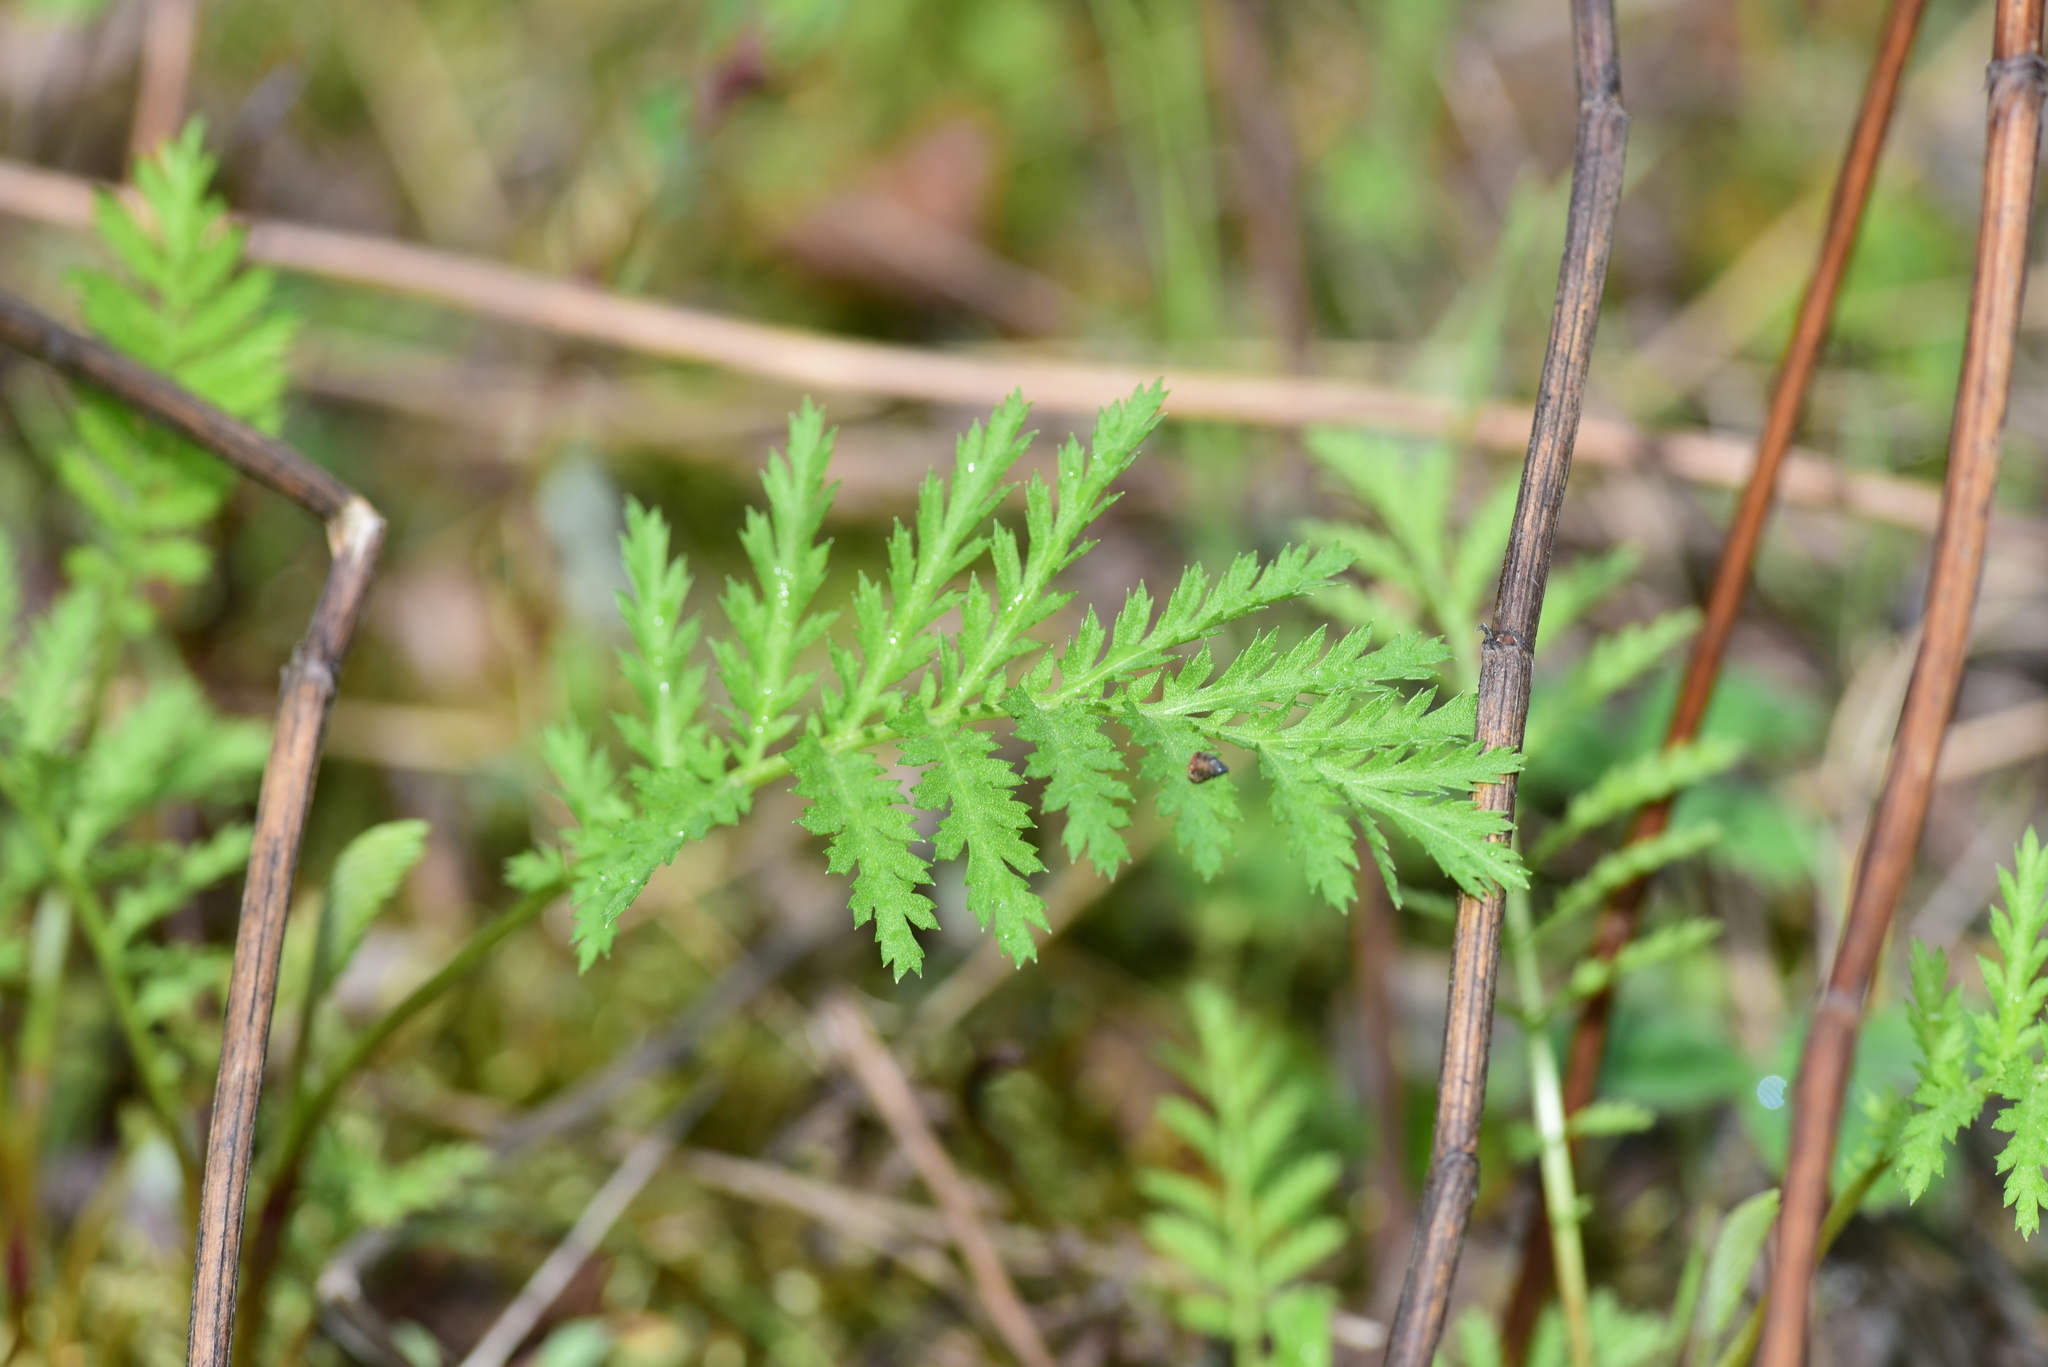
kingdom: Plantae
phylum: Tracheophyta
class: Magnoliopsida
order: Asterales
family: Asteraceae
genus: Tanacetum
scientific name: Tanacetum vulgare
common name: Common tansy
